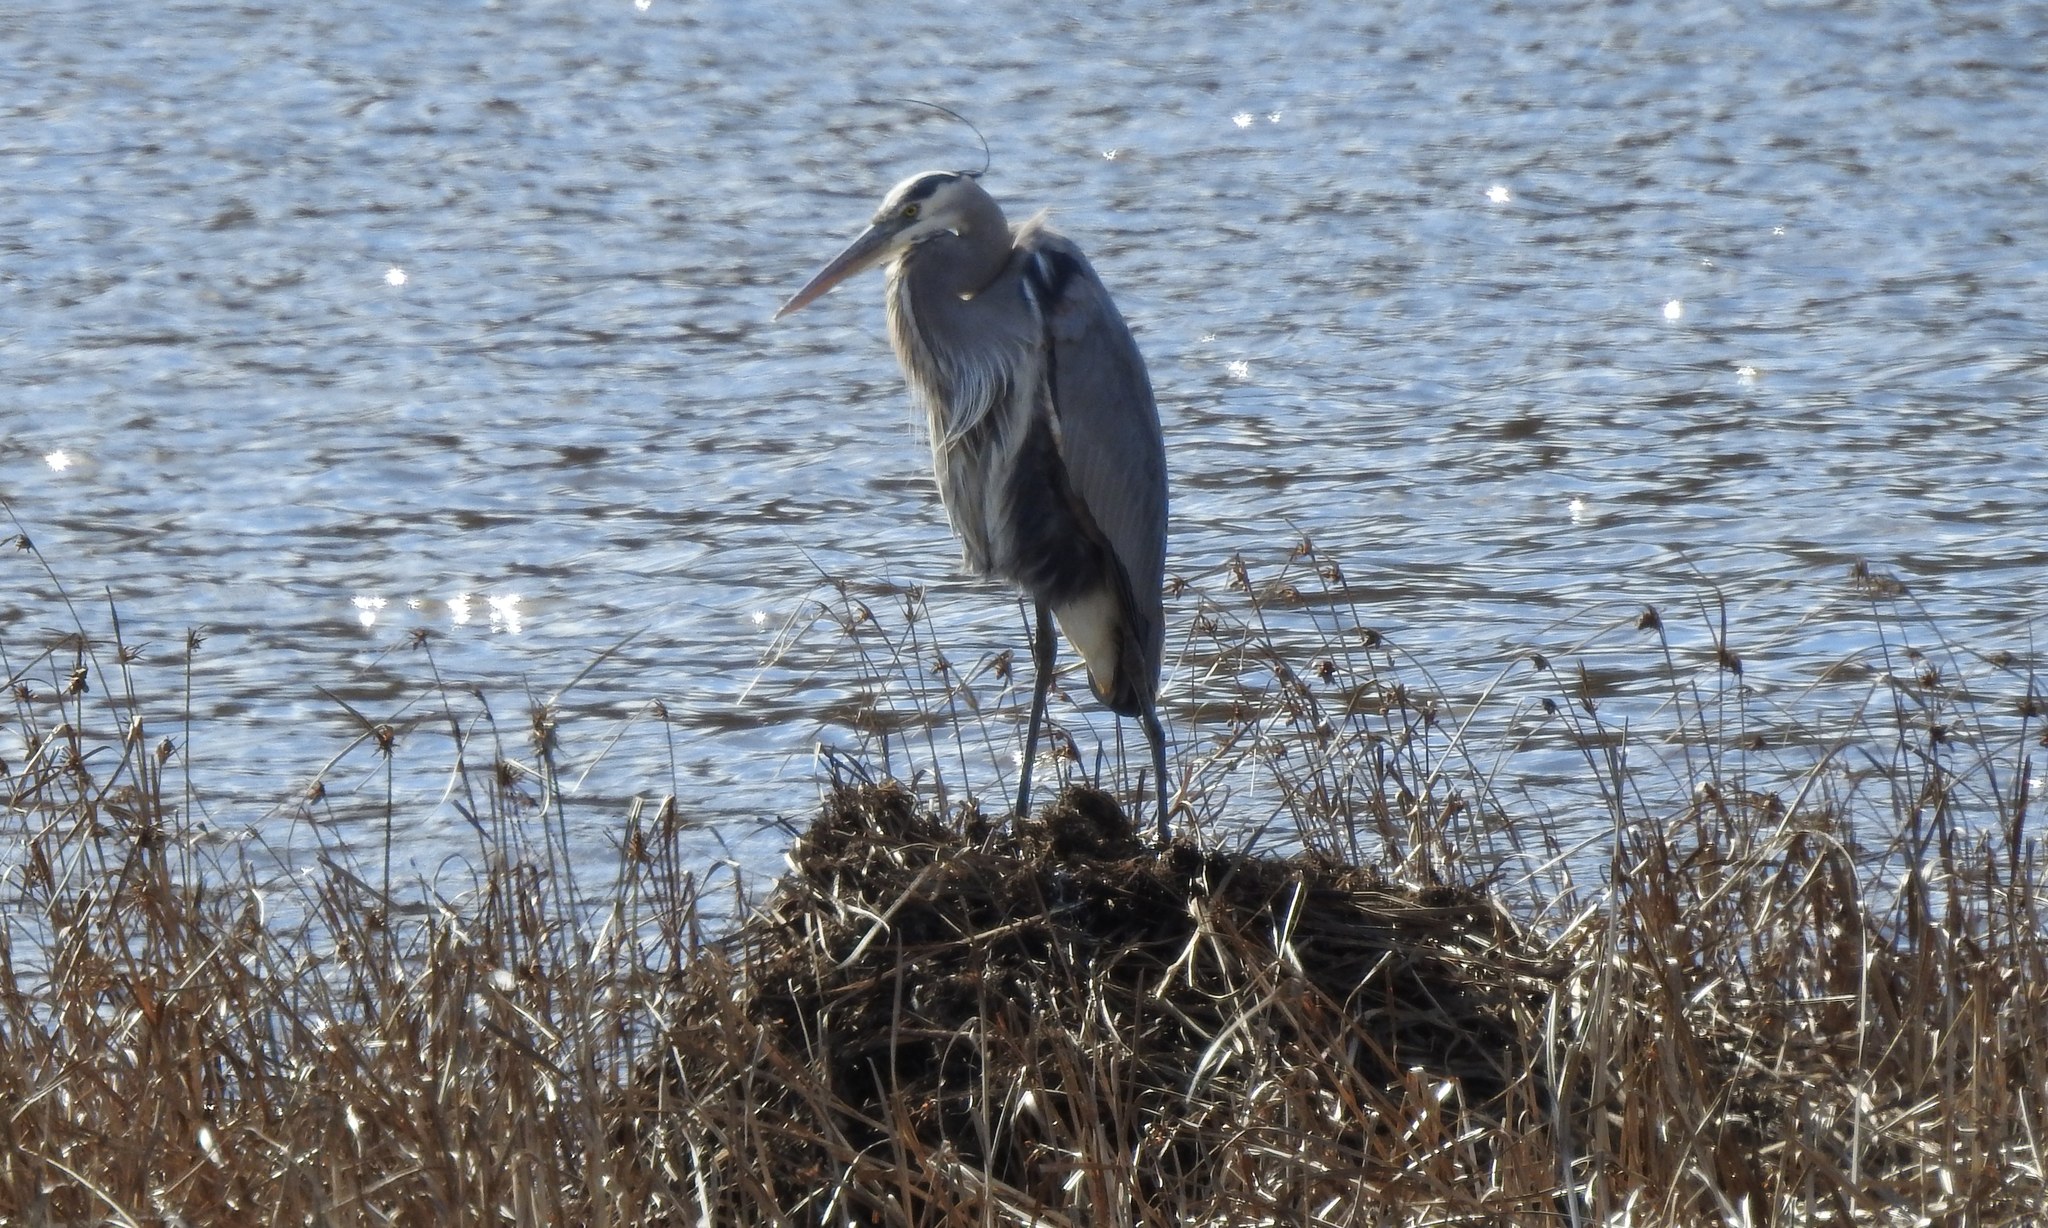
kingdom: Animalia
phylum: Chordata
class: Aves
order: Pelecaniformes
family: Ardeidae
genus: Ardea
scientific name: Ardea herodias
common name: Great blue heron
